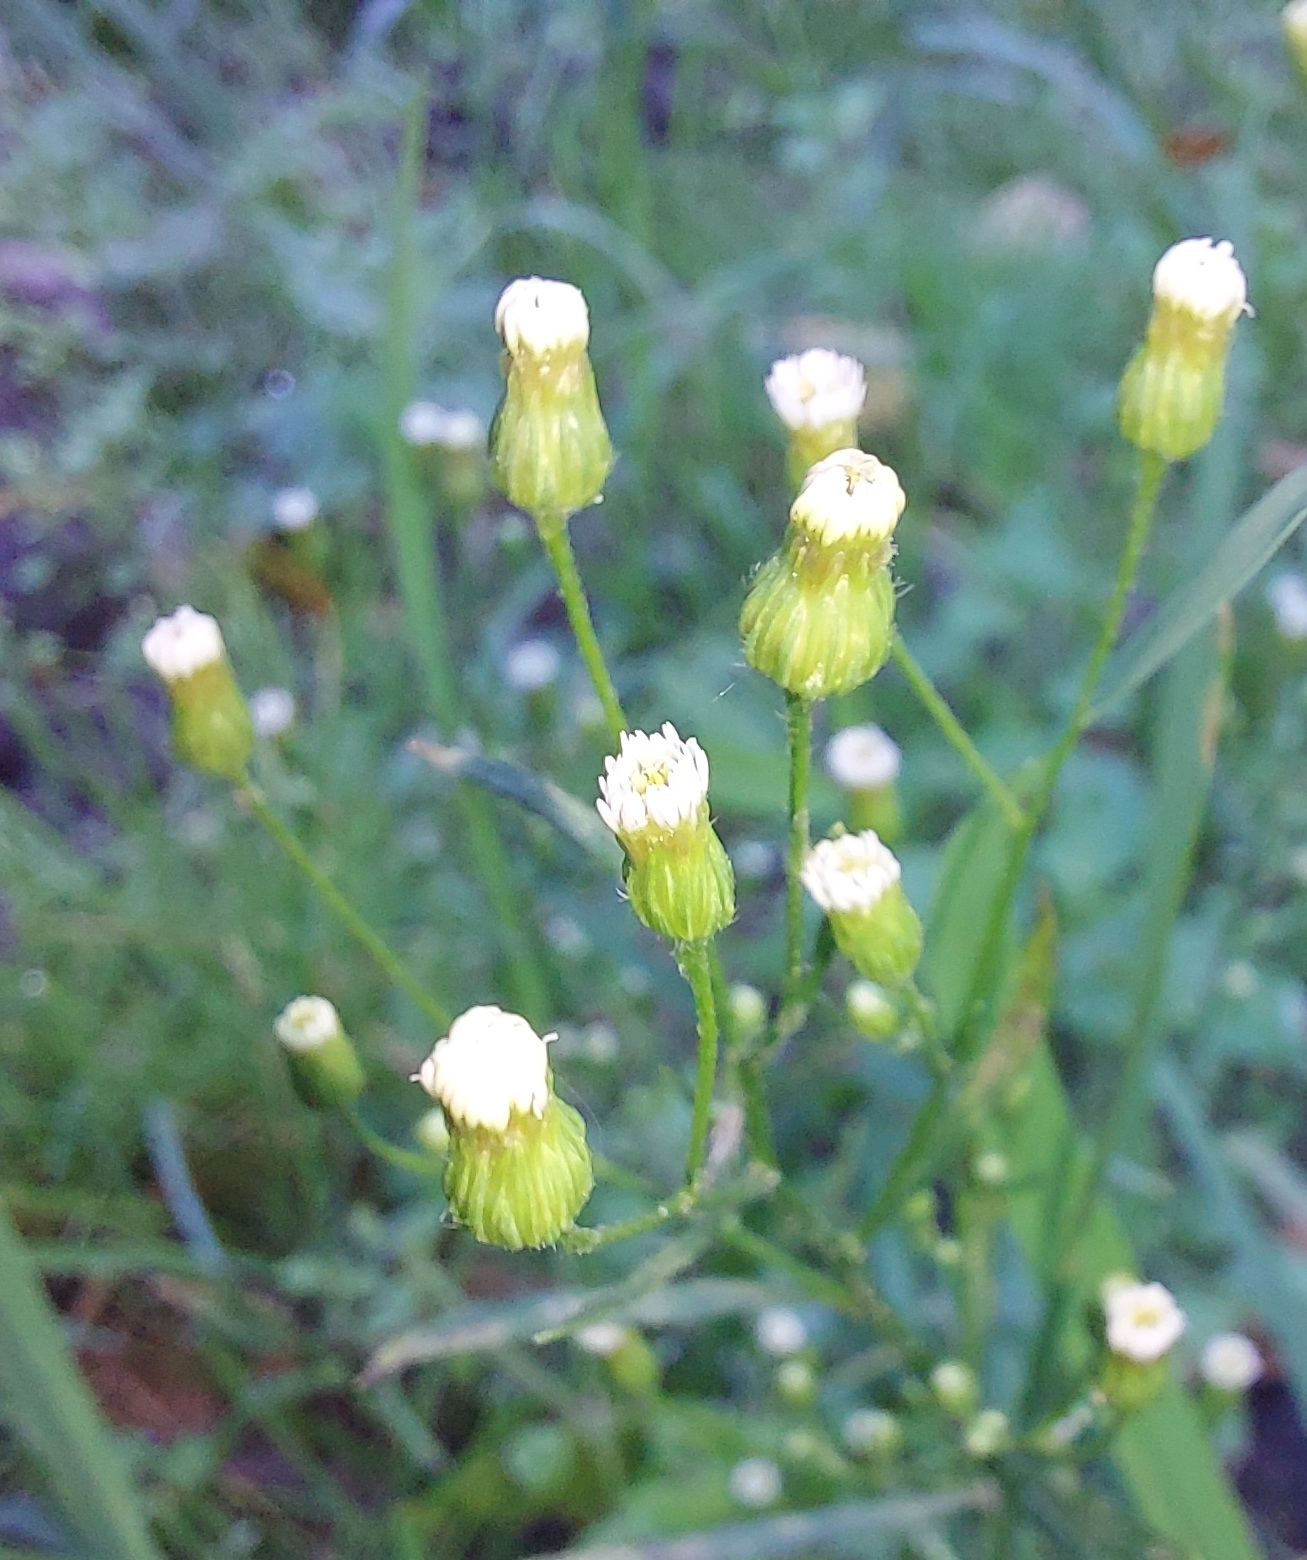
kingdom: Plantae
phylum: Tracheophyta
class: Magnoliopsida
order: Asterales
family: Asteraceae
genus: Erigeron
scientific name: Erigeron canadensis
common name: Canadian fleabane
